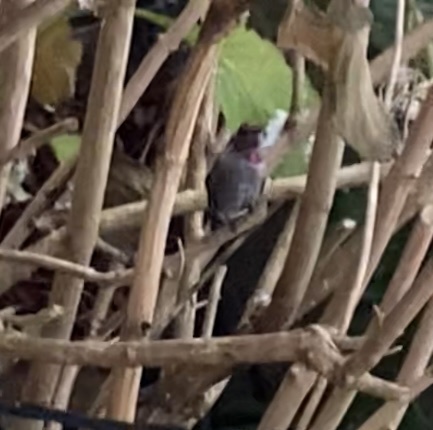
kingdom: Animalia
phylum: Chordata
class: Aves
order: Apodiformes
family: Trochilidae
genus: Calypte
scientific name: Calypte anna
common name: Anna's hummingbird
